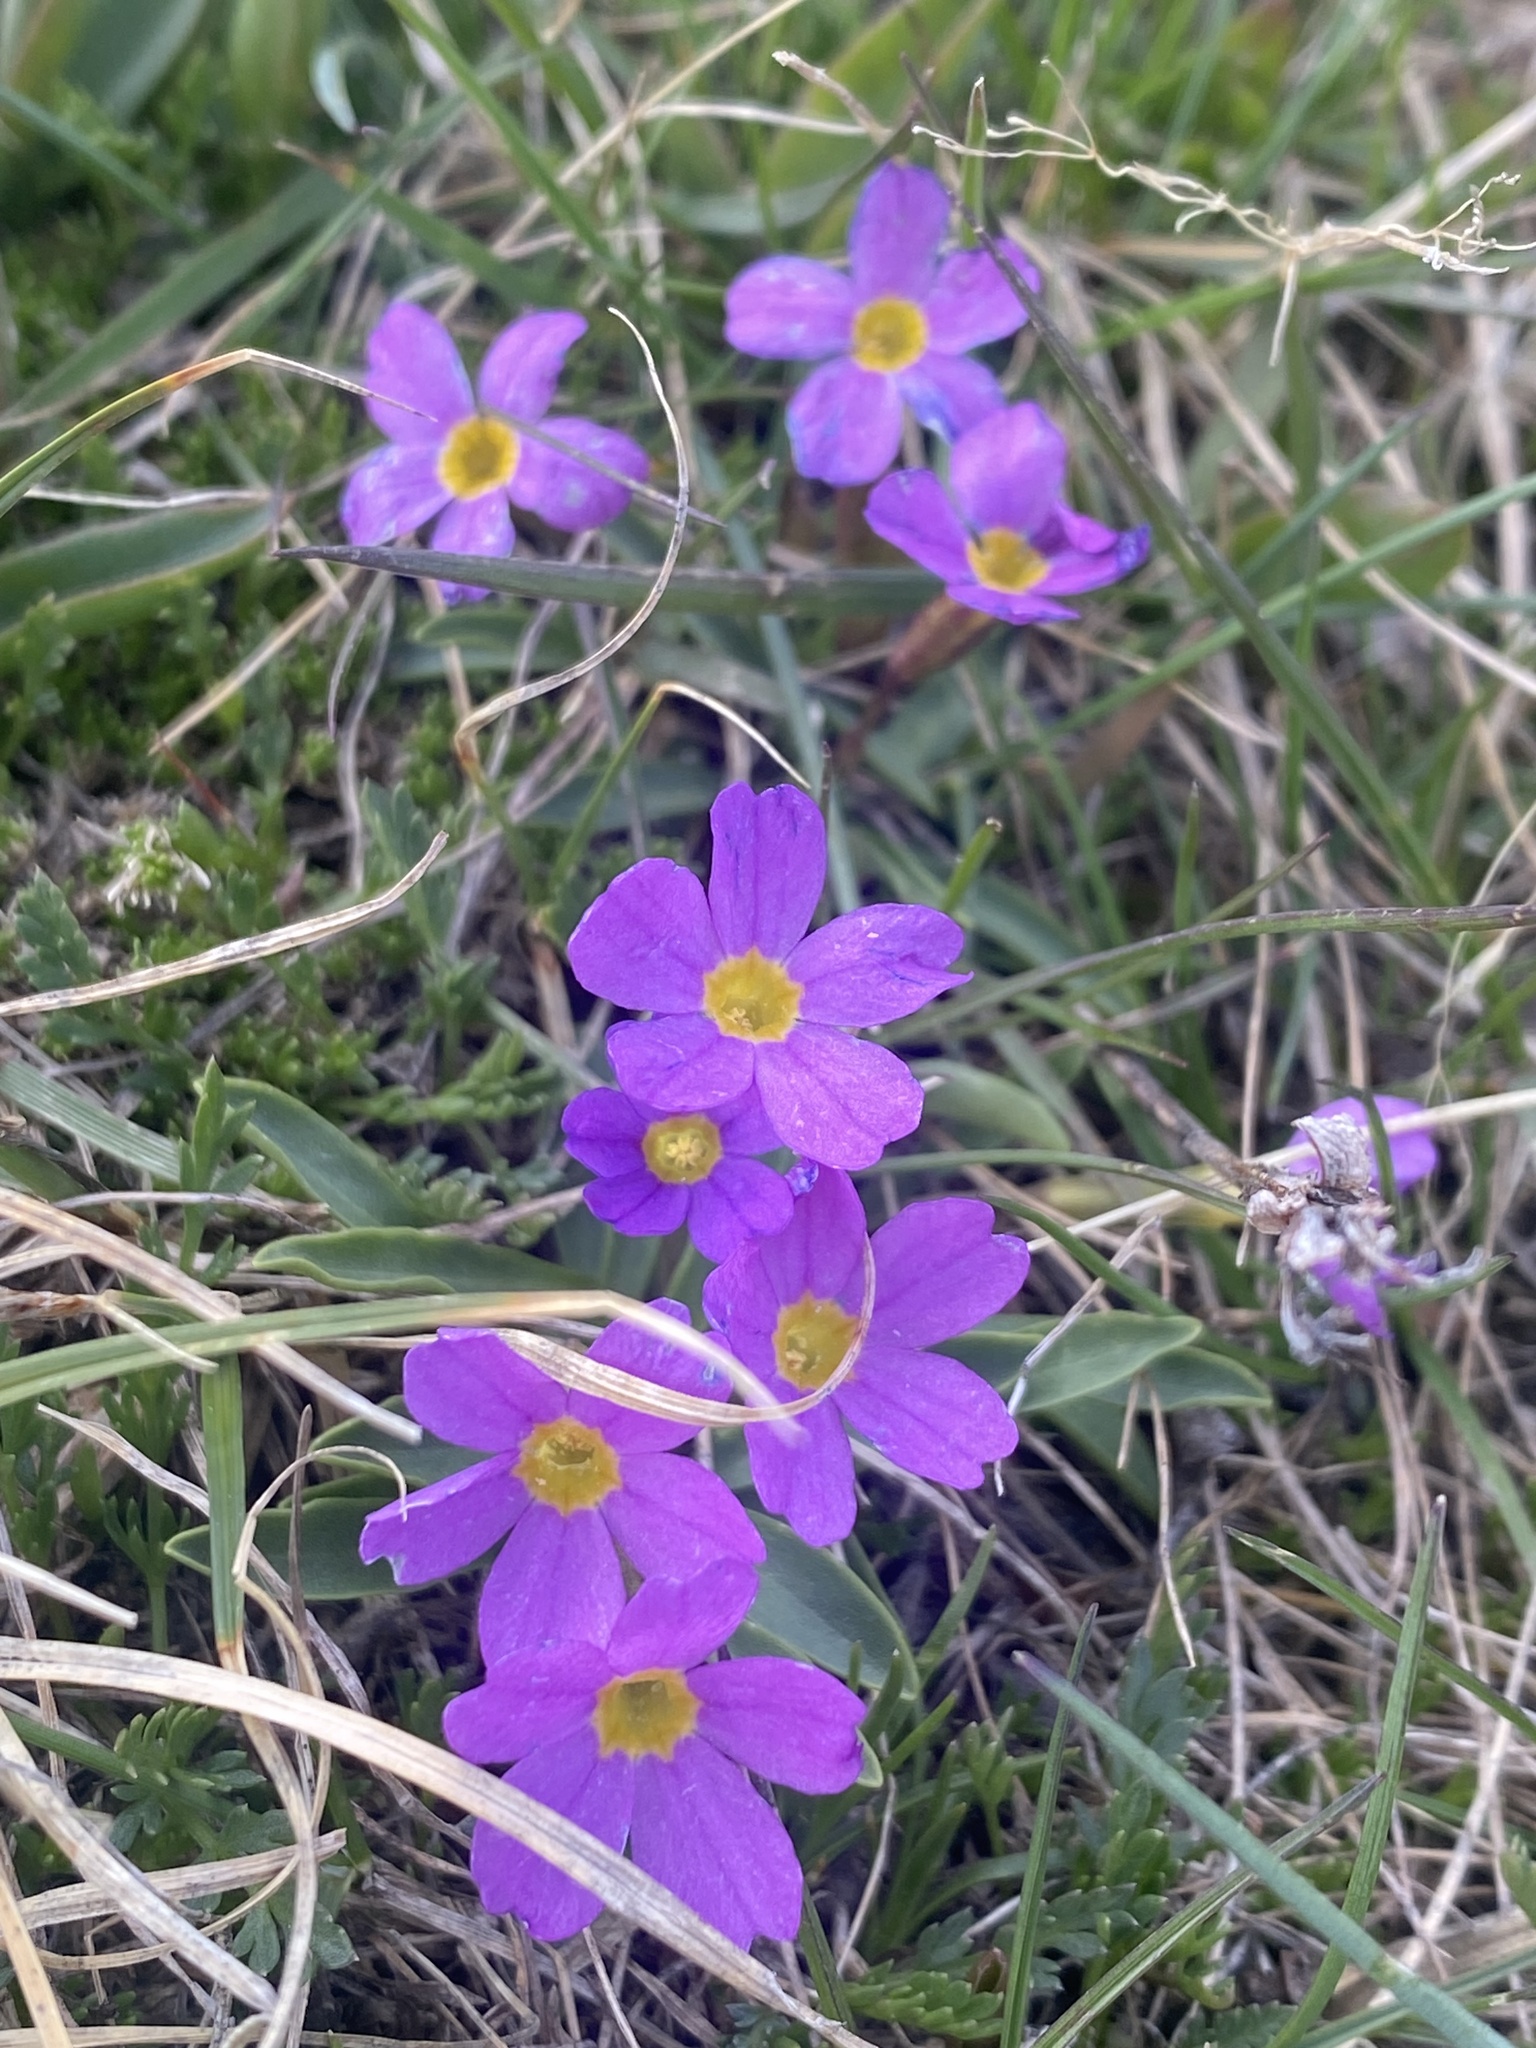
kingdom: Plantae
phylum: Tracheophyta
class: Magnoliopsida
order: Ericales
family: Primulaceae
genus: Primula
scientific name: Primula angustifolia
